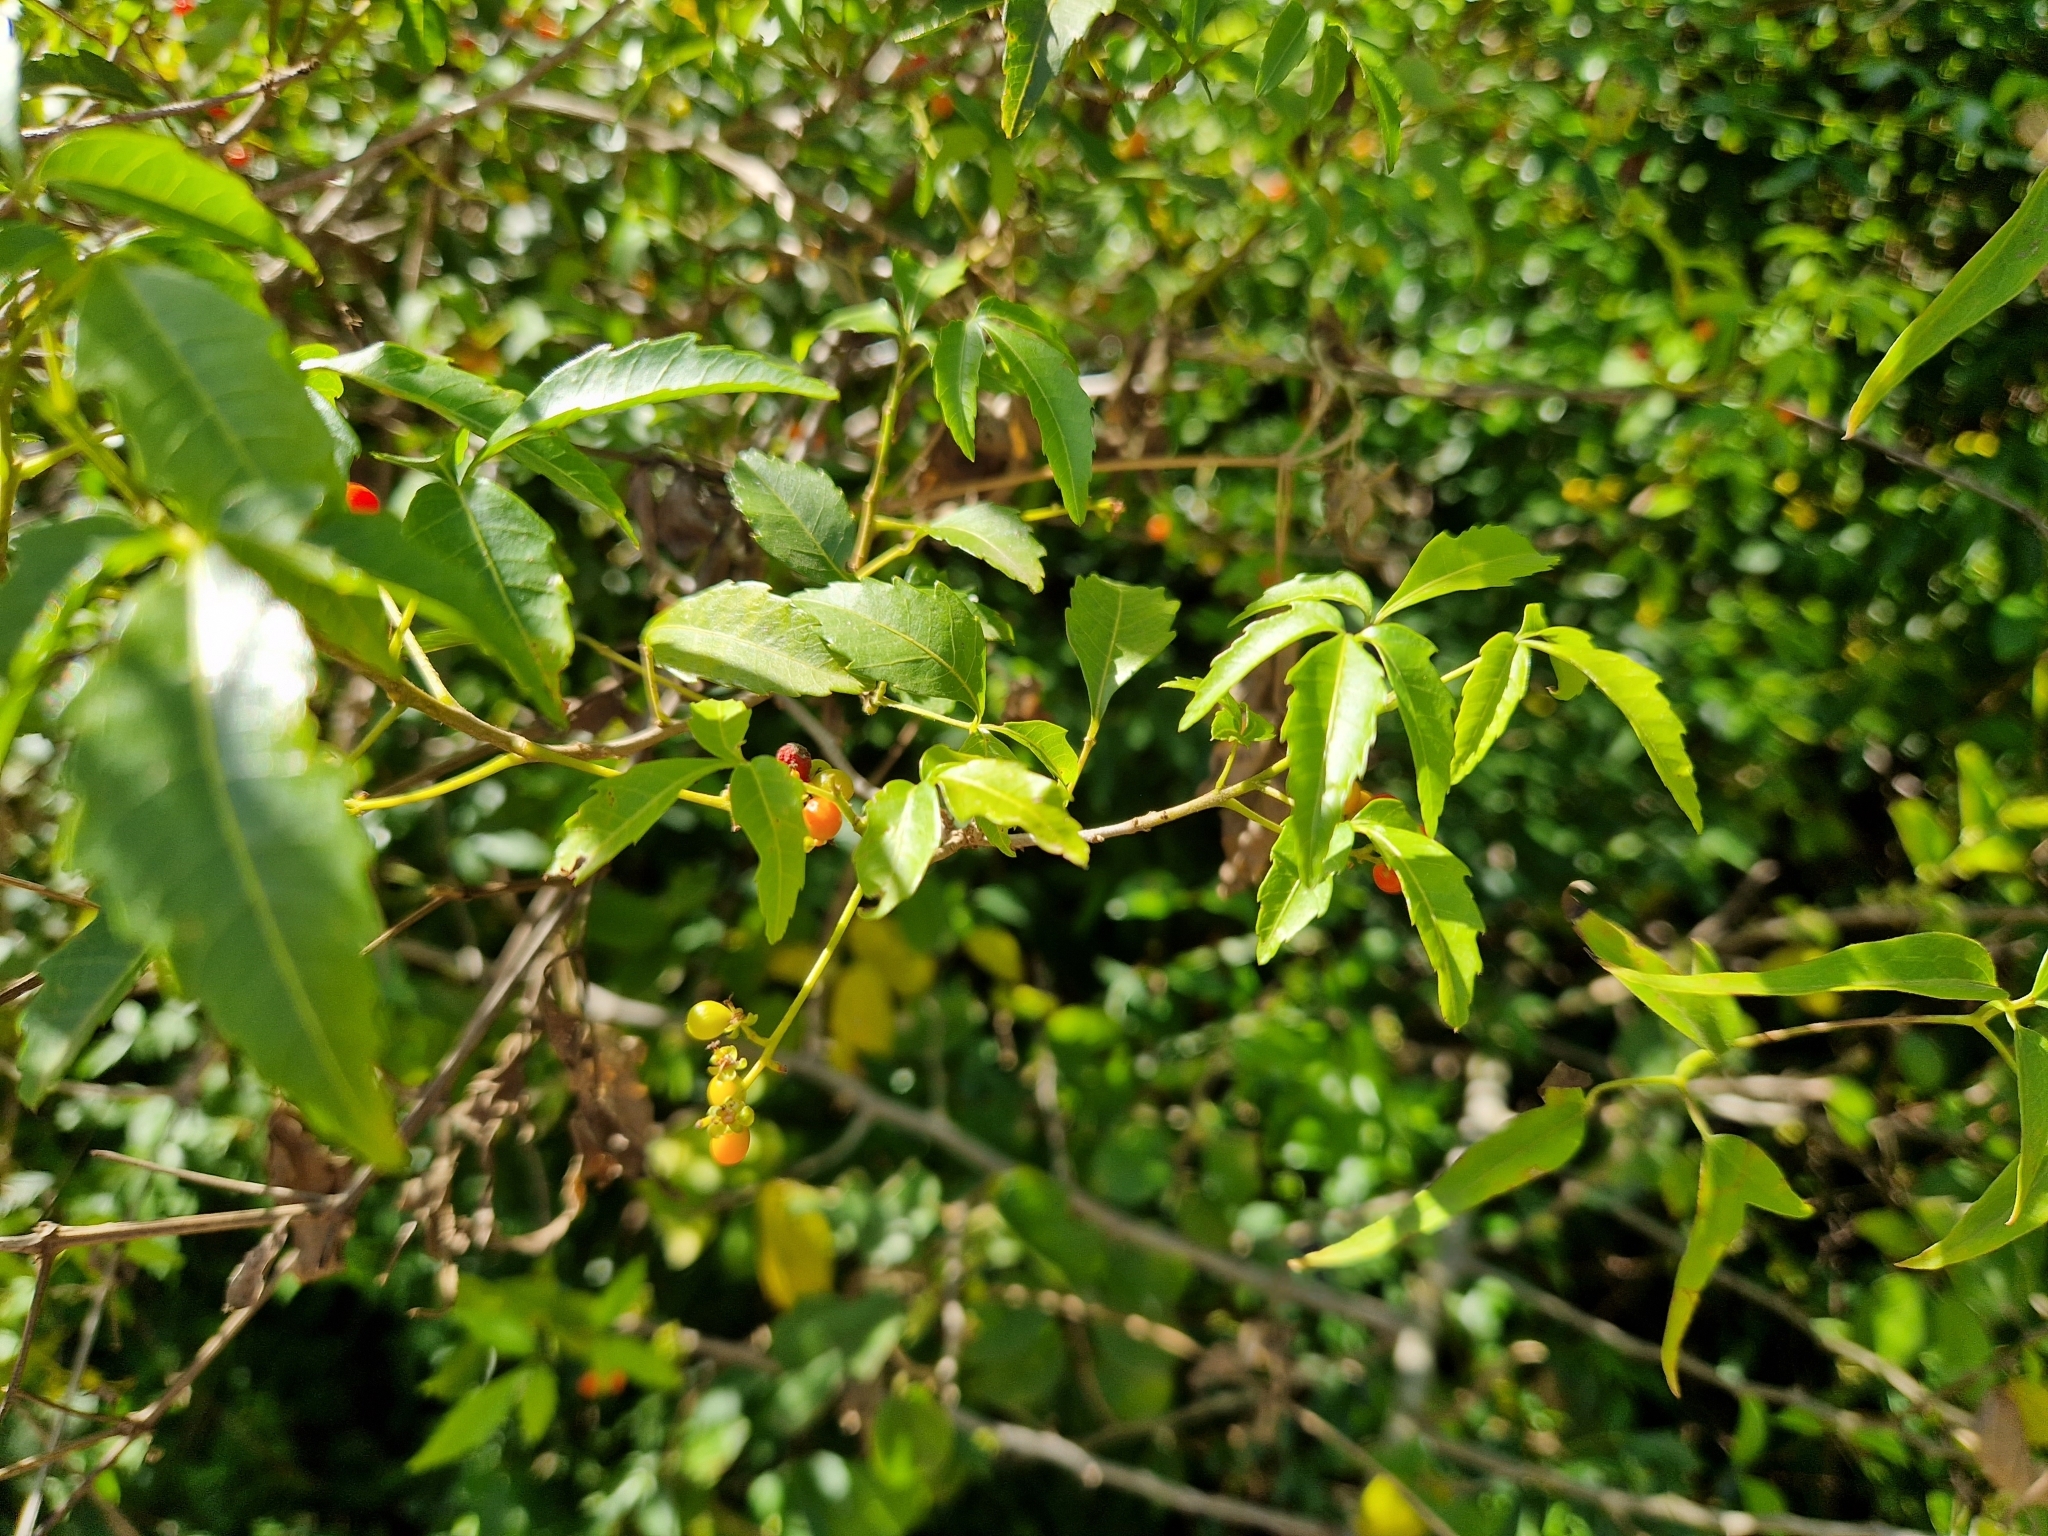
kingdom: Plantae
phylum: Tracheophyta
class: Magnoliopsida
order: Sapindales
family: Sapindaceae
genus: Allophylus
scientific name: Allophylus edulis
